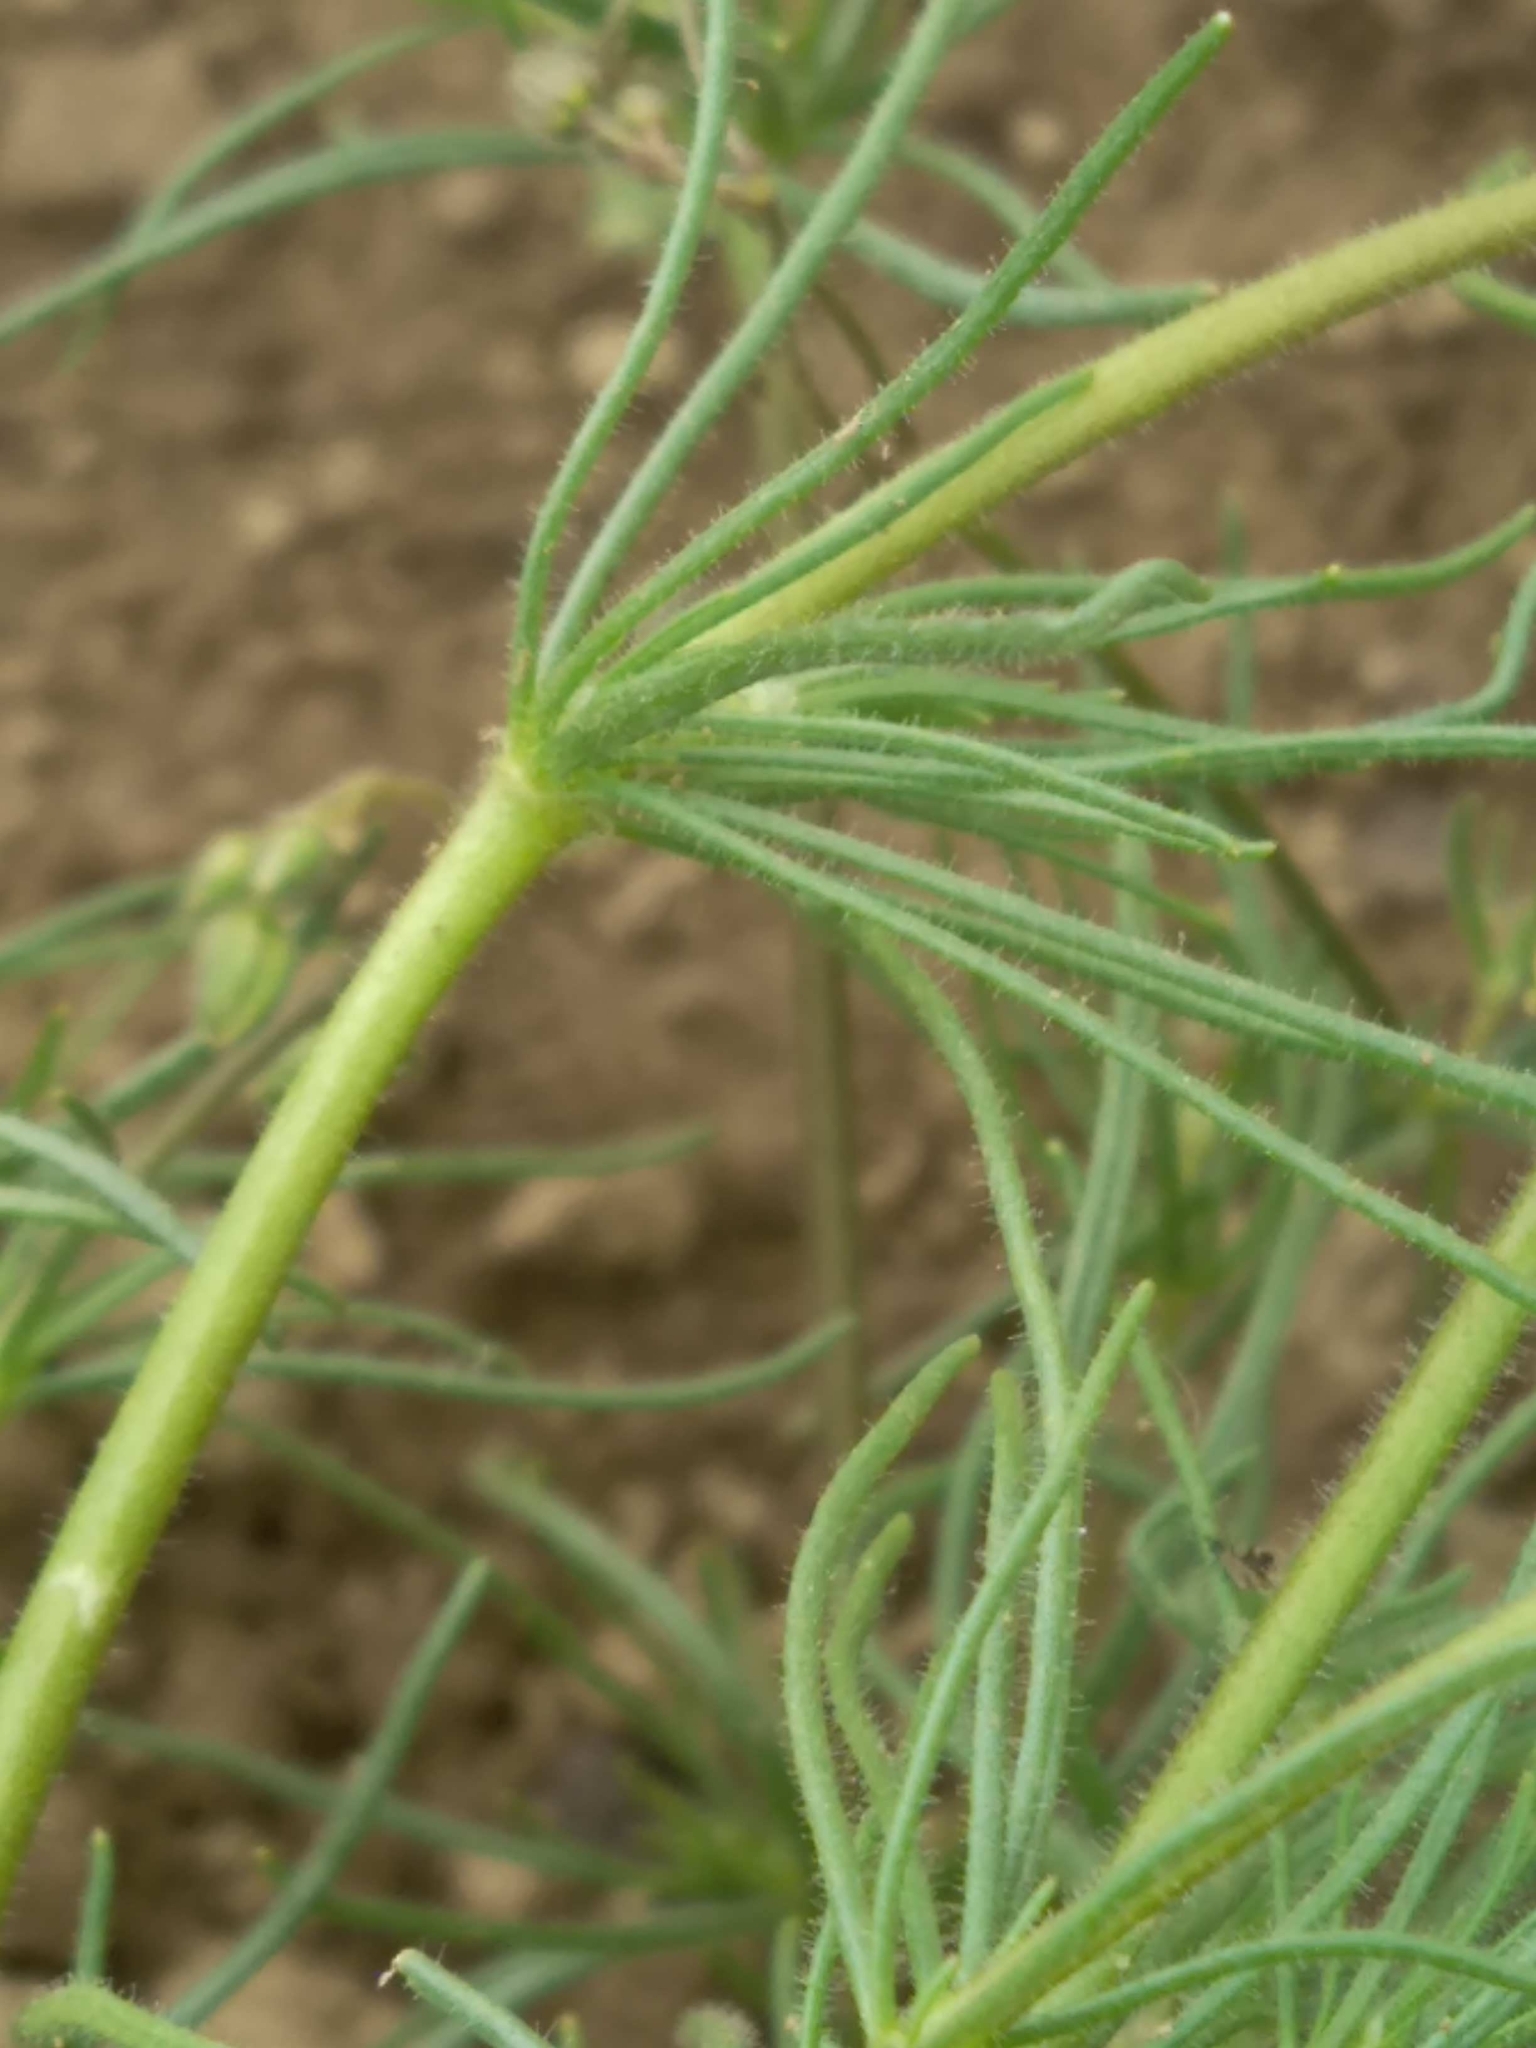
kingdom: Plantae
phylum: Tracheophyta
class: Magnoliopsida
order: Caryophyllales
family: Caryophyllaceae
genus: Spergula
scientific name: Spergula arvensis
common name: Corn spurrey
